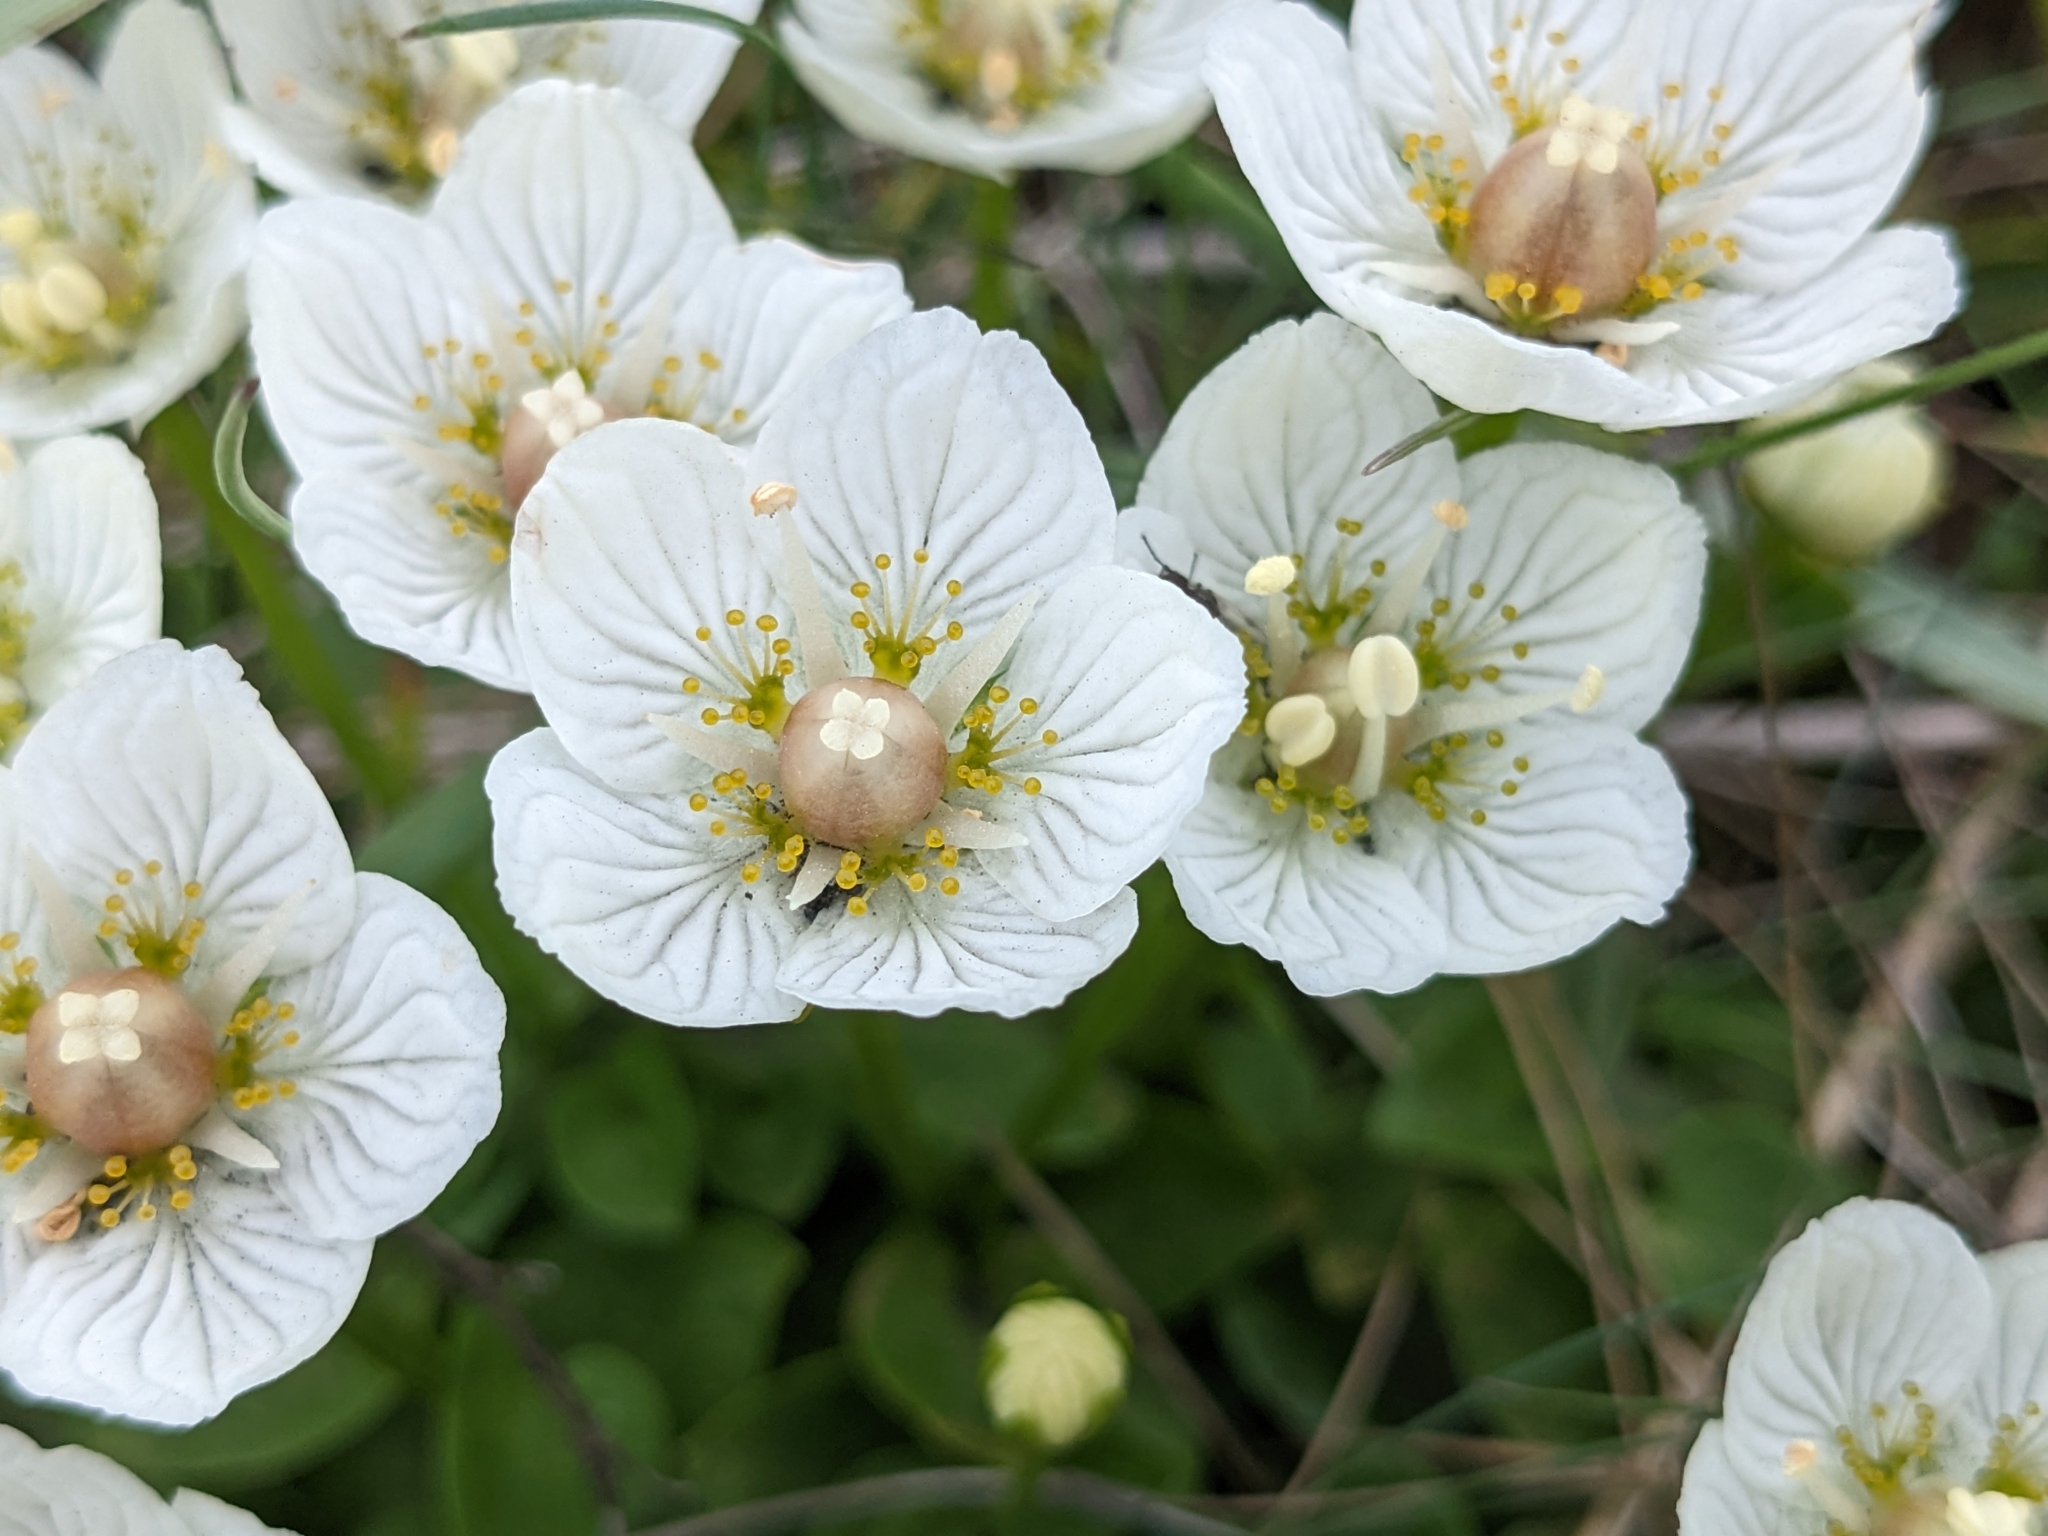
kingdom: Plantae
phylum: Tracheophyta
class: Magnoliopsida
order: Celastrales
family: Parnassiaceae
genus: Parnassia
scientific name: Parnassia palustris
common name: Grass-of-parnassus
